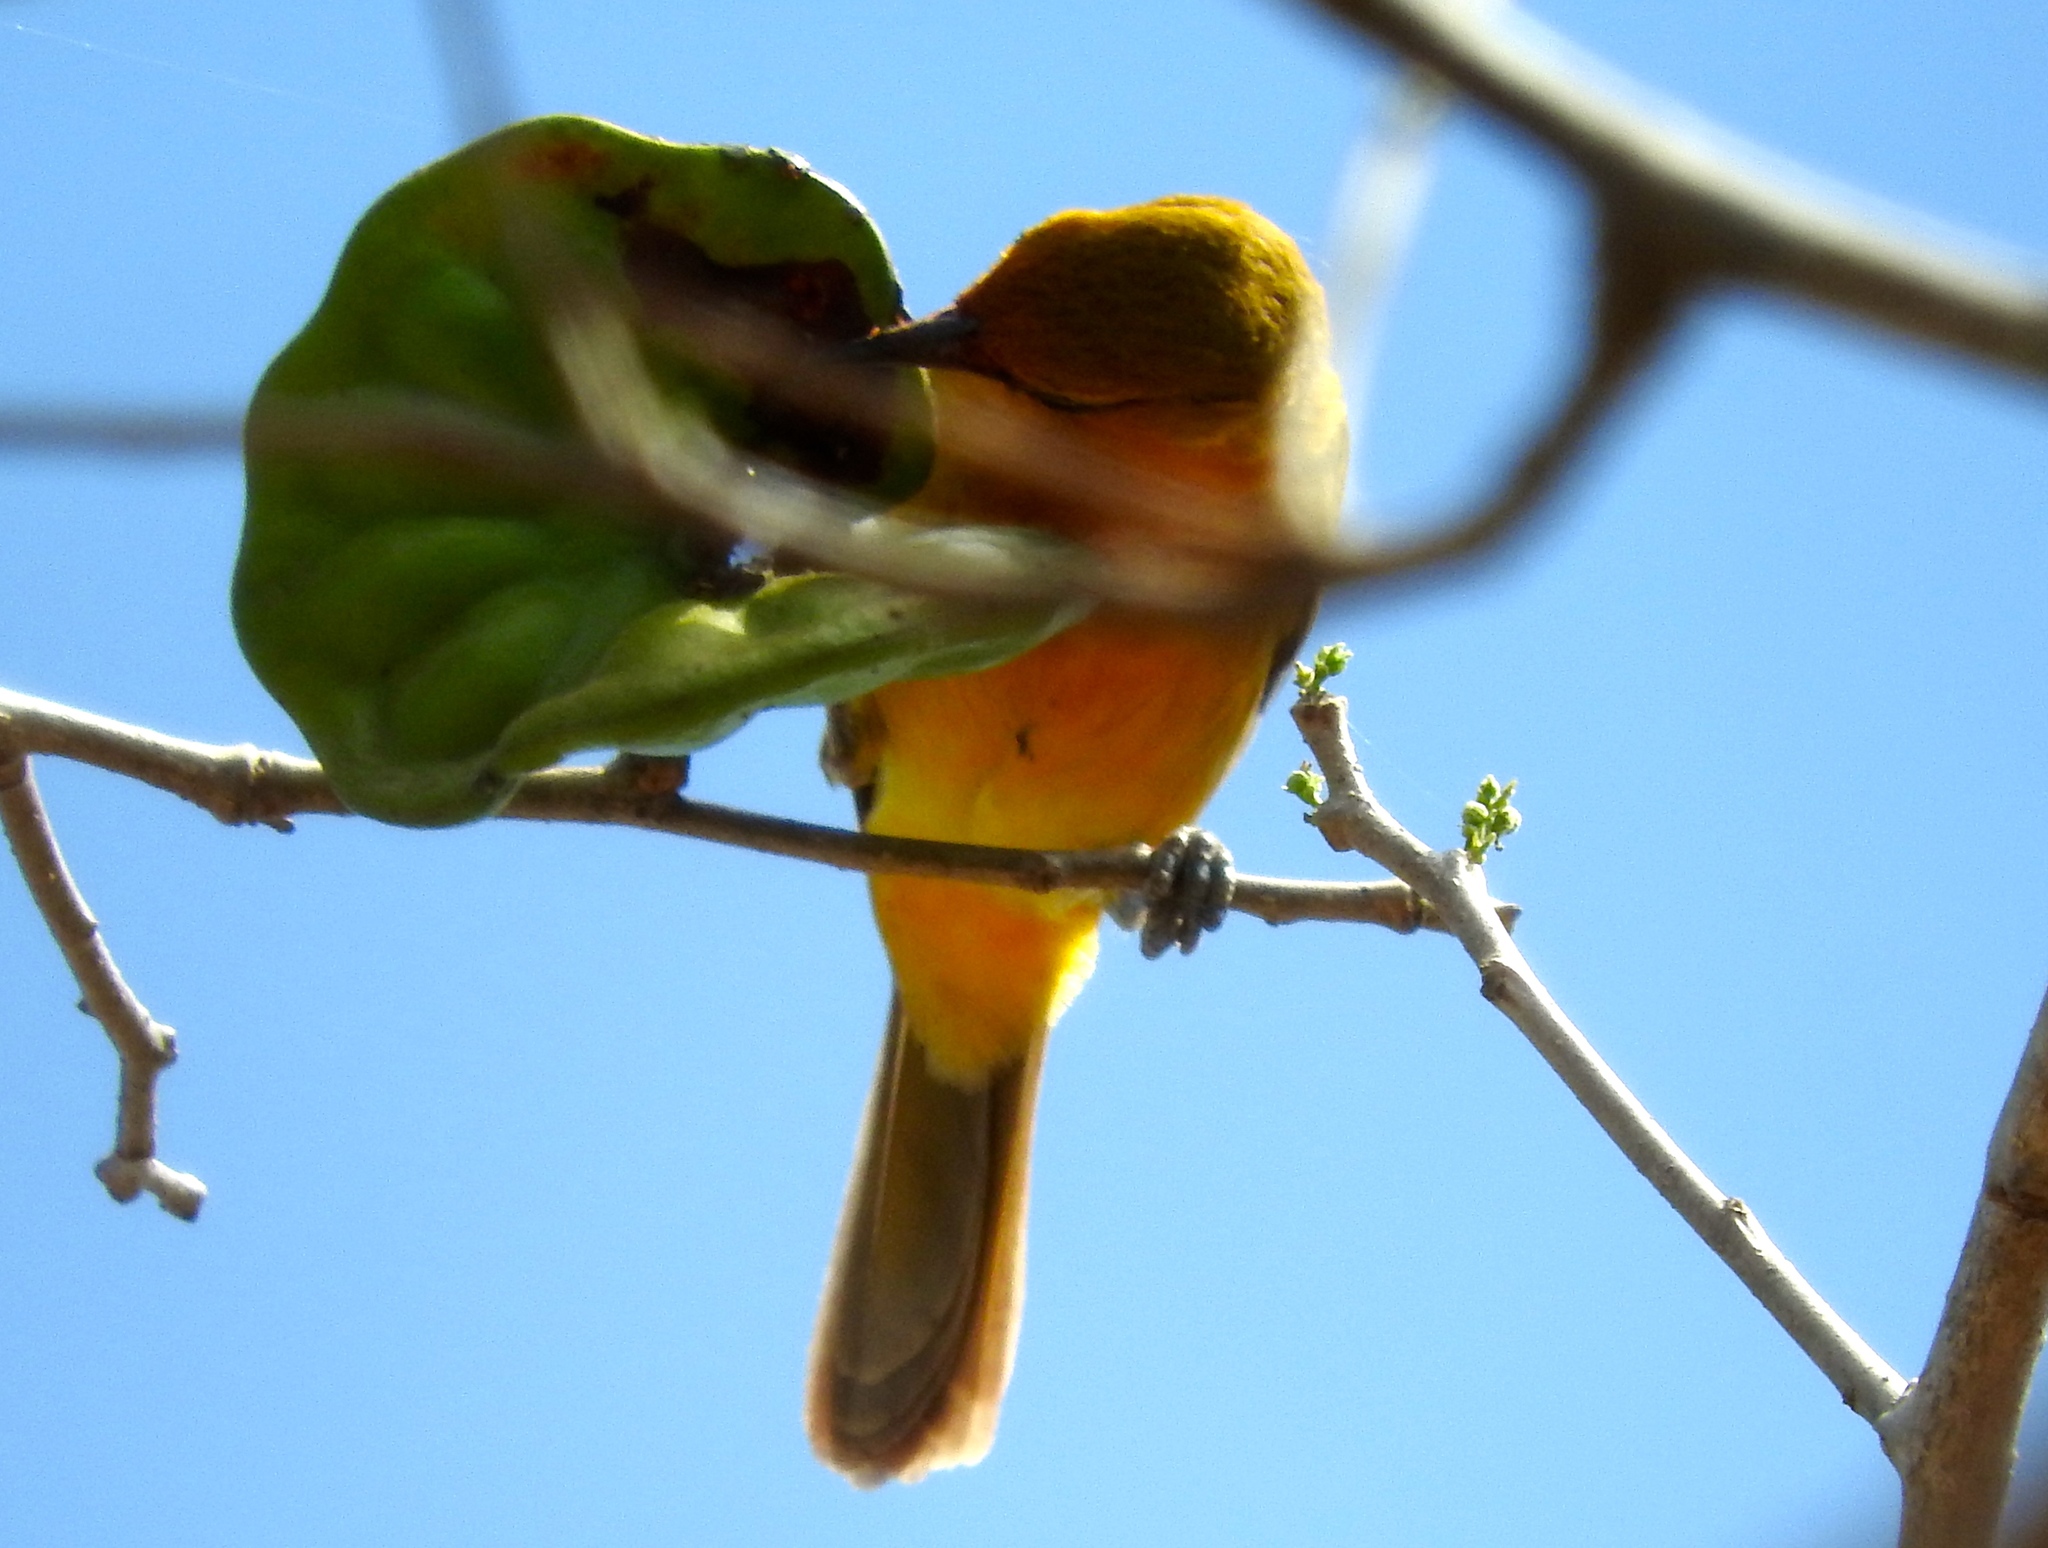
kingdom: Animalia
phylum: Chordata
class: Aves
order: Passeriformes
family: Icteridae
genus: Icterus
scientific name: Icterus pustulatus
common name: Streak-backed oriole
